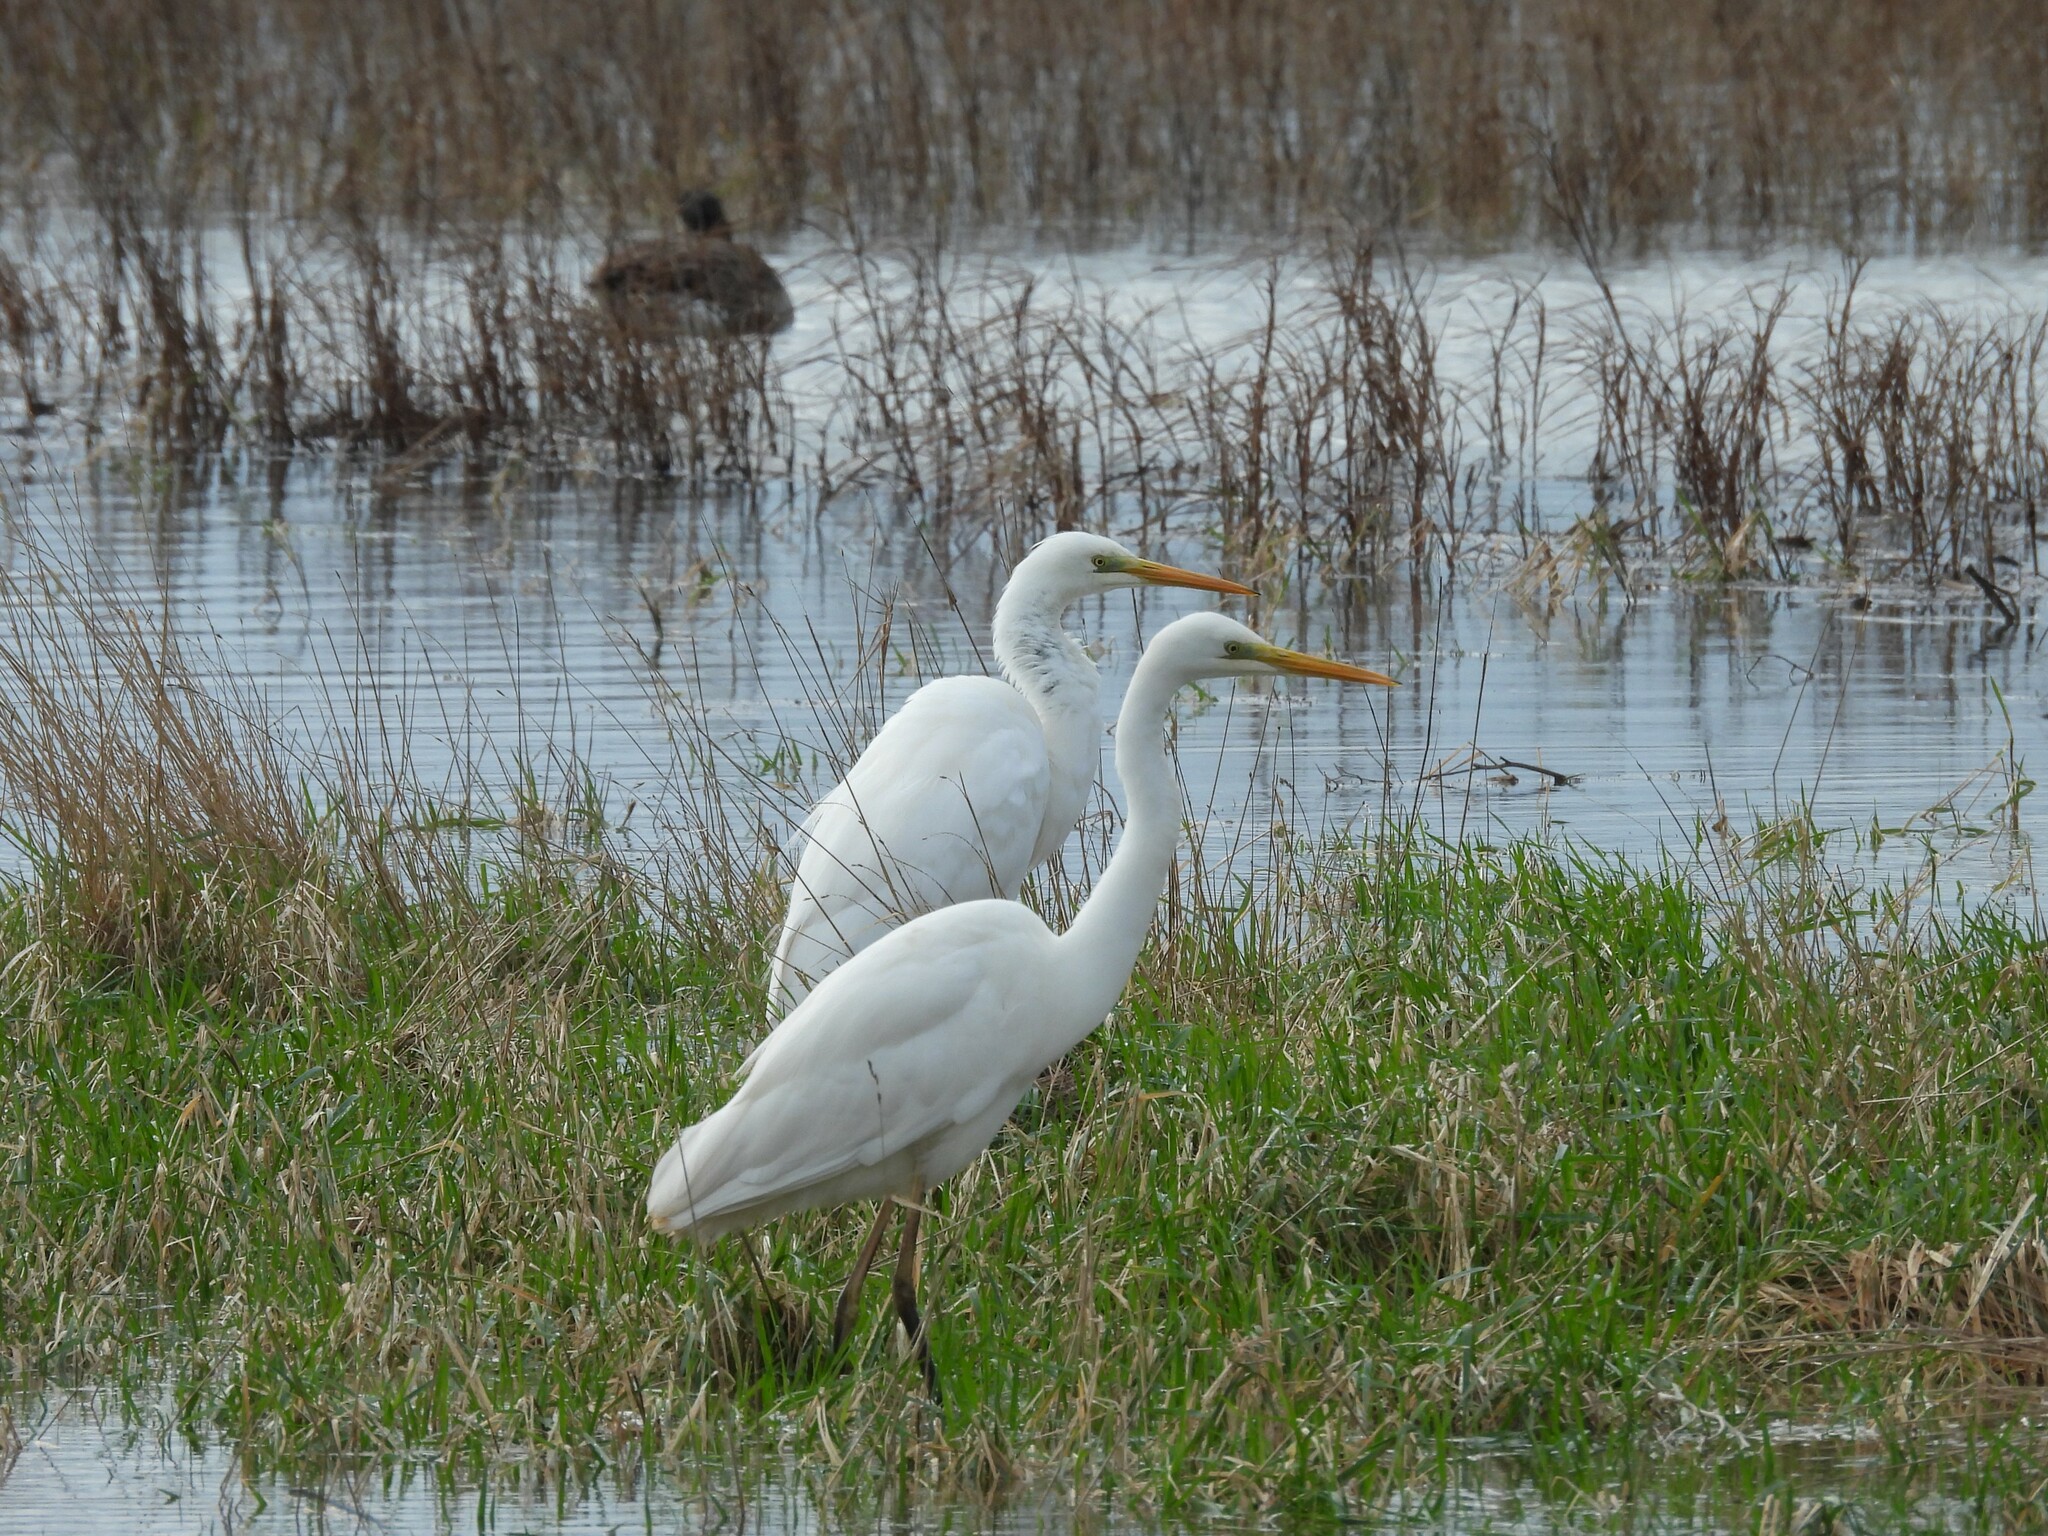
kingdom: Animalia
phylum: Chordata
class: Aves
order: Pelecaniformes
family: Ardeidae
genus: Ardea
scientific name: Ardea alba
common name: Great egret
